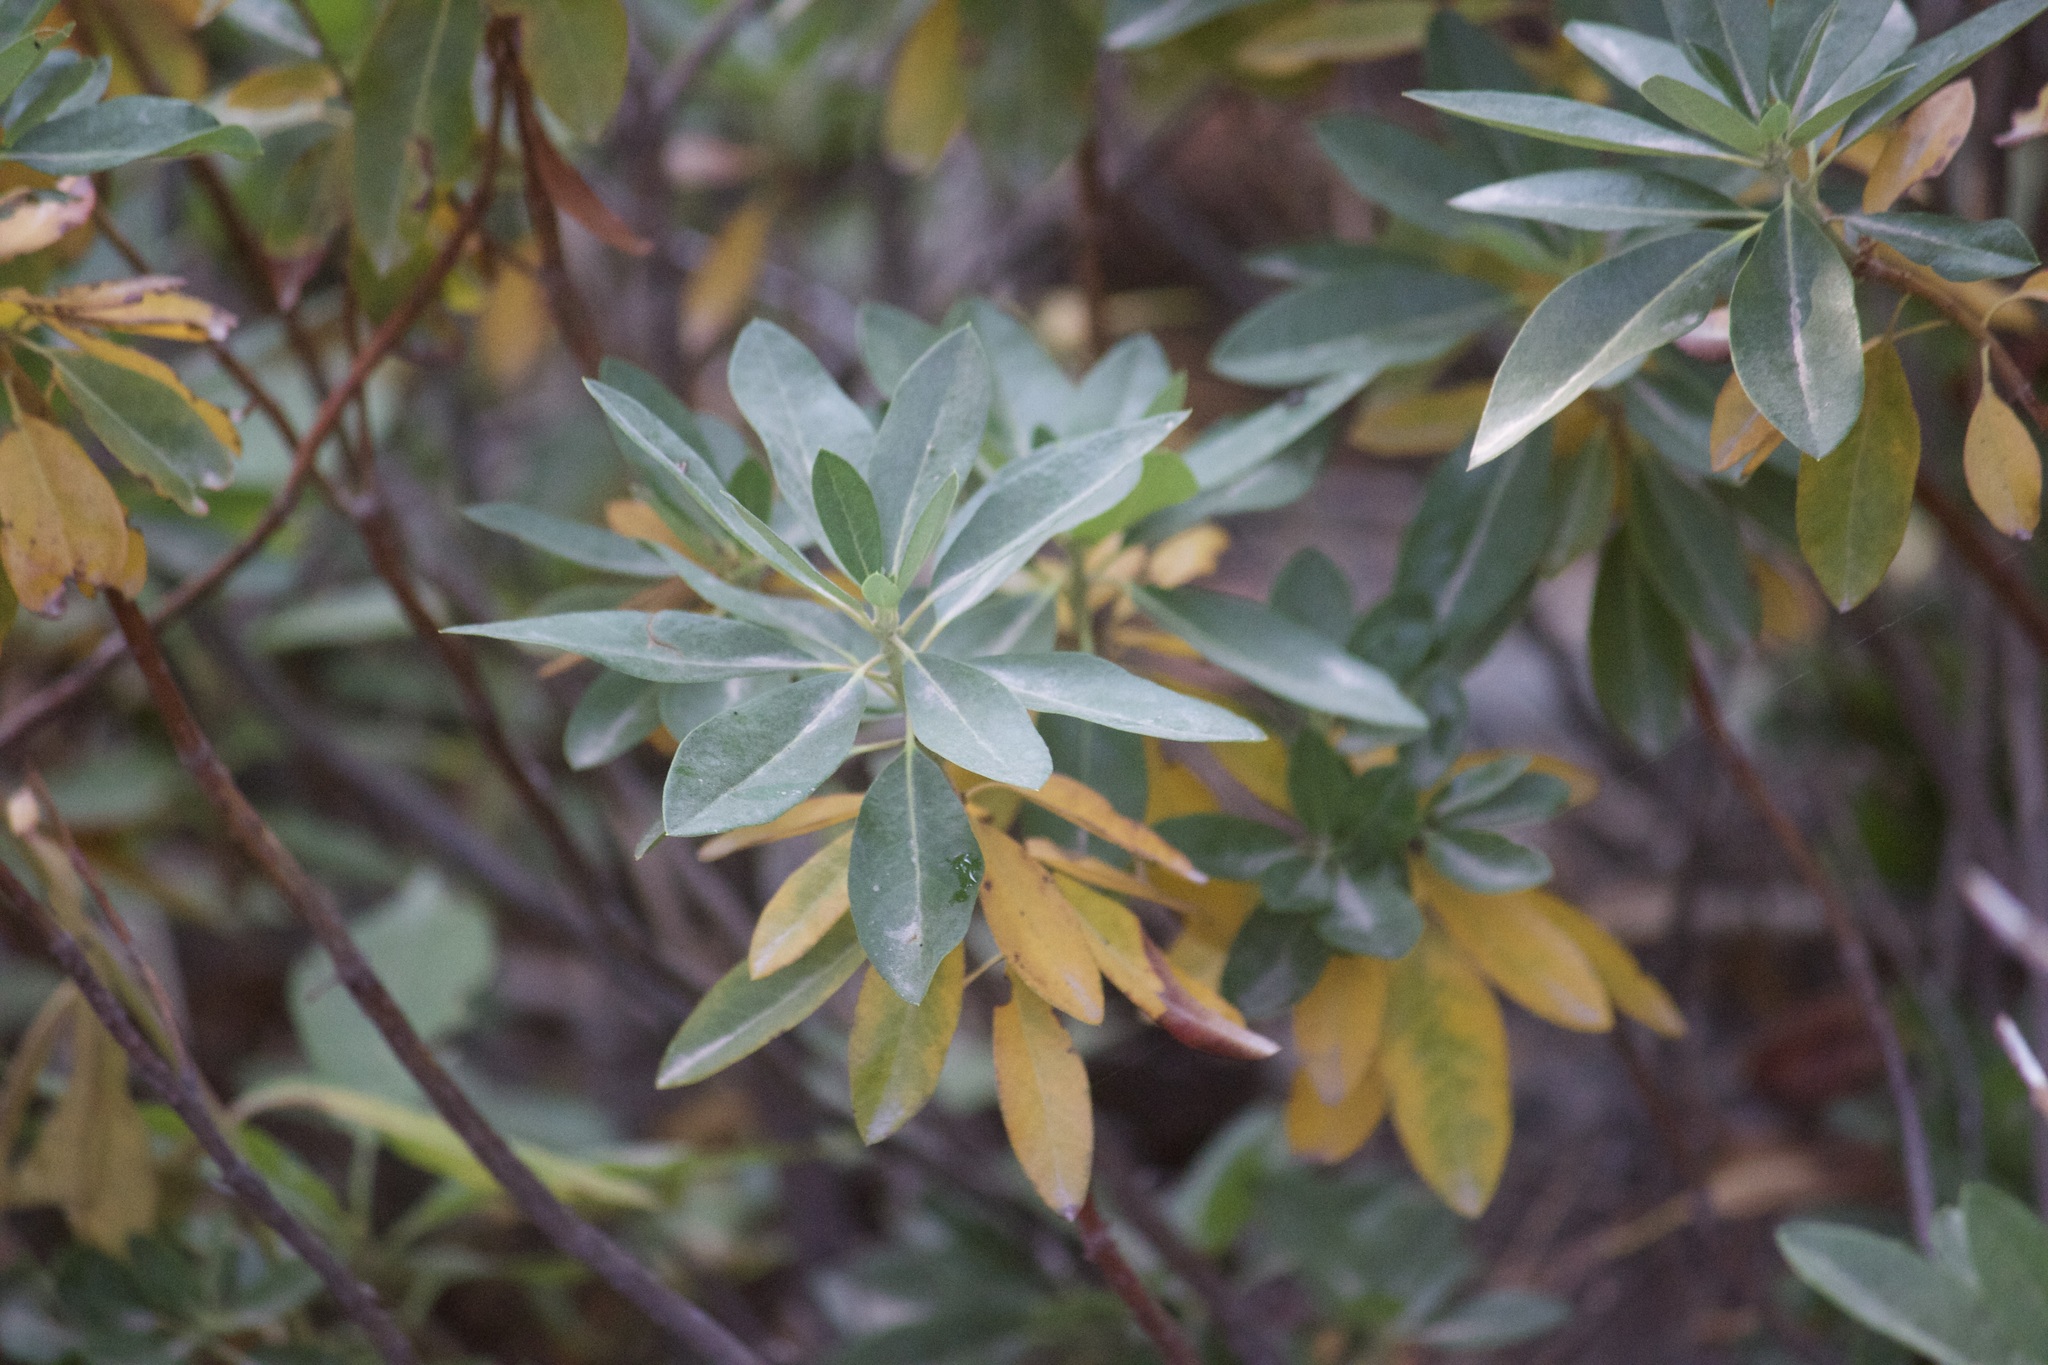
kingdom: Plantae
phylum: Tracheophyta
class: Magnoliopsida
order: Ericales
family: Ericaceae
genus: Rhododendron
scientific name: Rhododendron columbianum
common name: Western labrador tea
